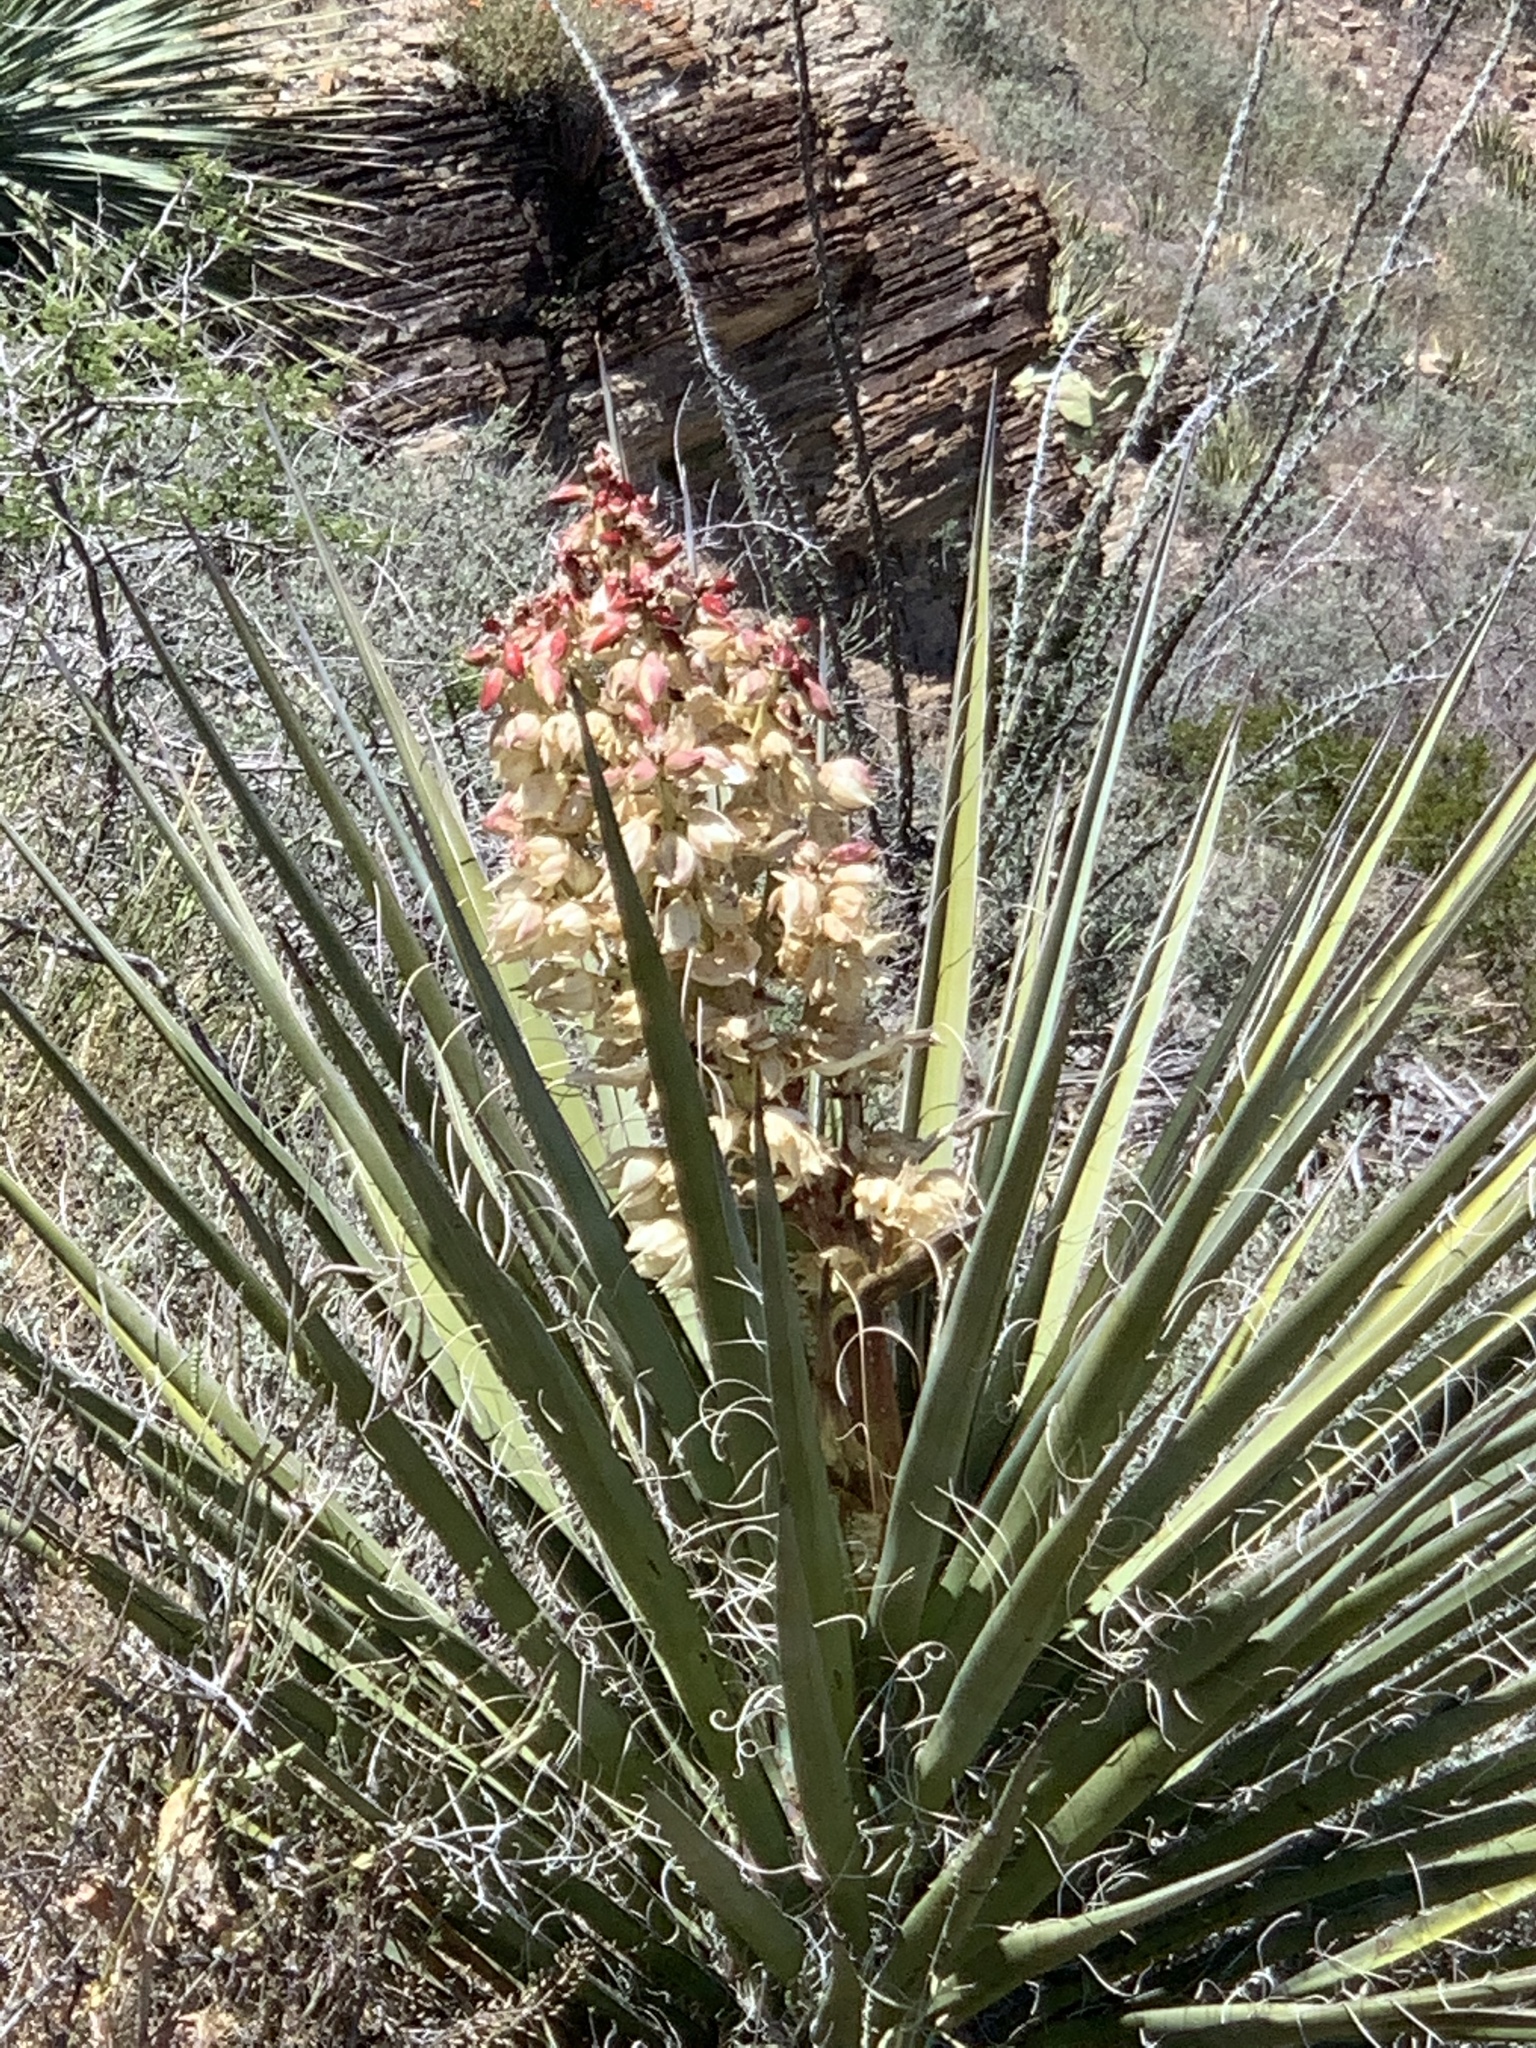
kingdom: Plantae
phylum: Tracheophyta
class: Liliopsida
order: Asparagales
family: Asparagaceae
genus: Yucca
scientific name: Yucca treculiana
